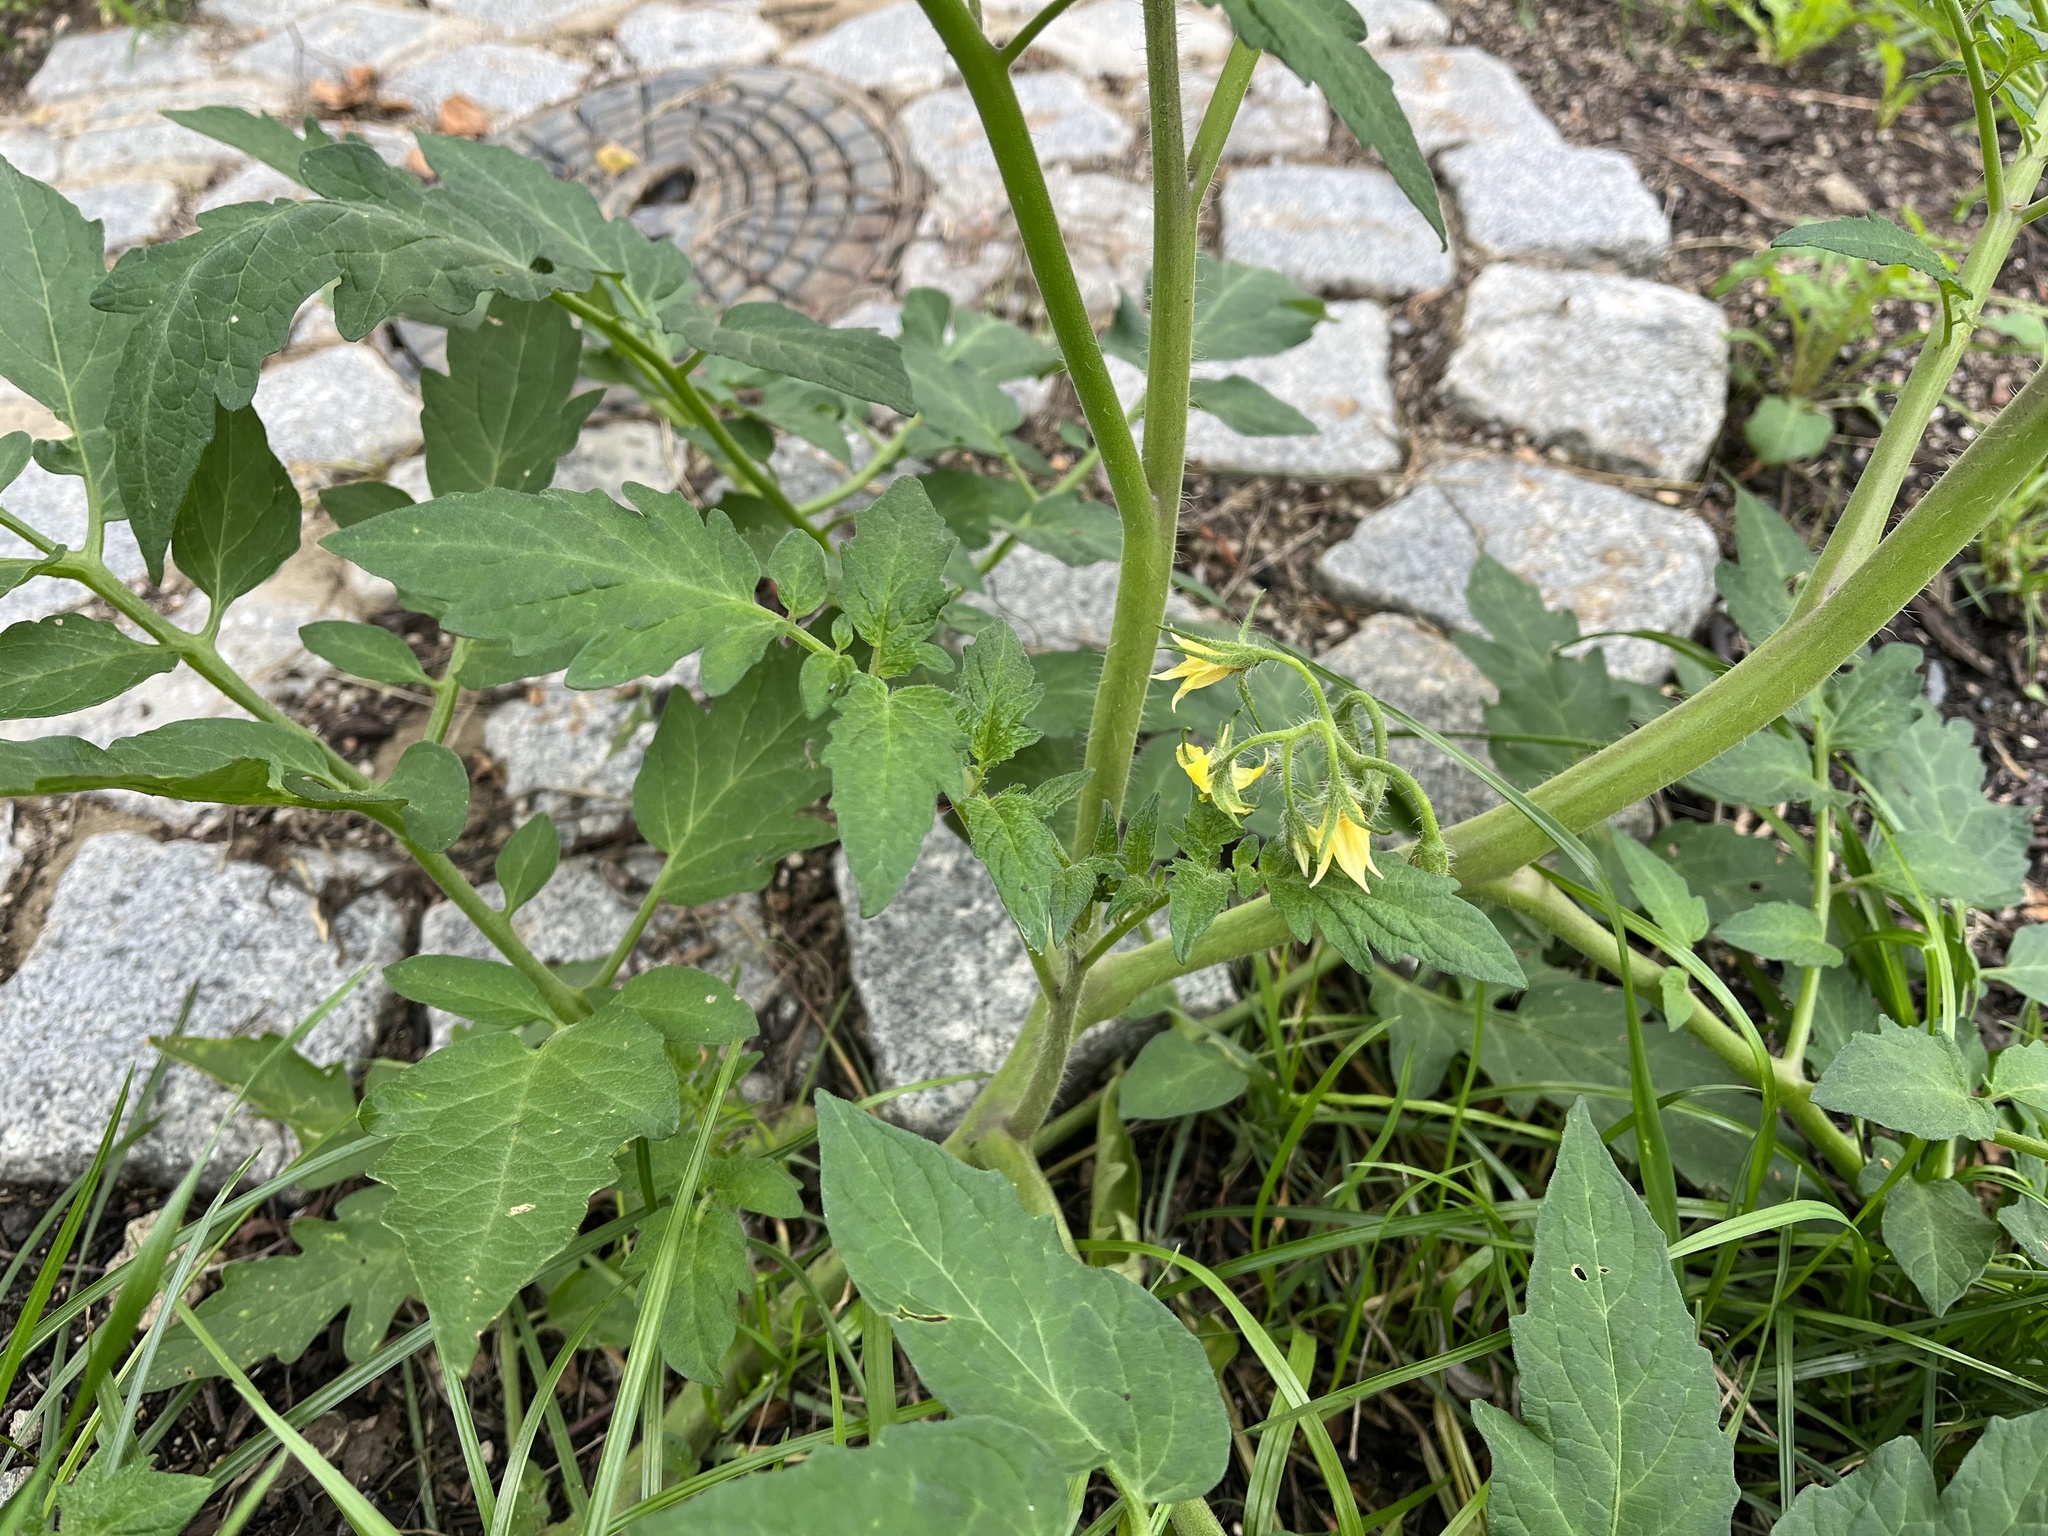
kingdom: Plantae
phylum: Tracheophyta
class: Magnoliopsida
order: Solanales
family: Solanaceae
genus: Solanum
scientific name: Solanum lycopersicum
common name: Garden tomato
